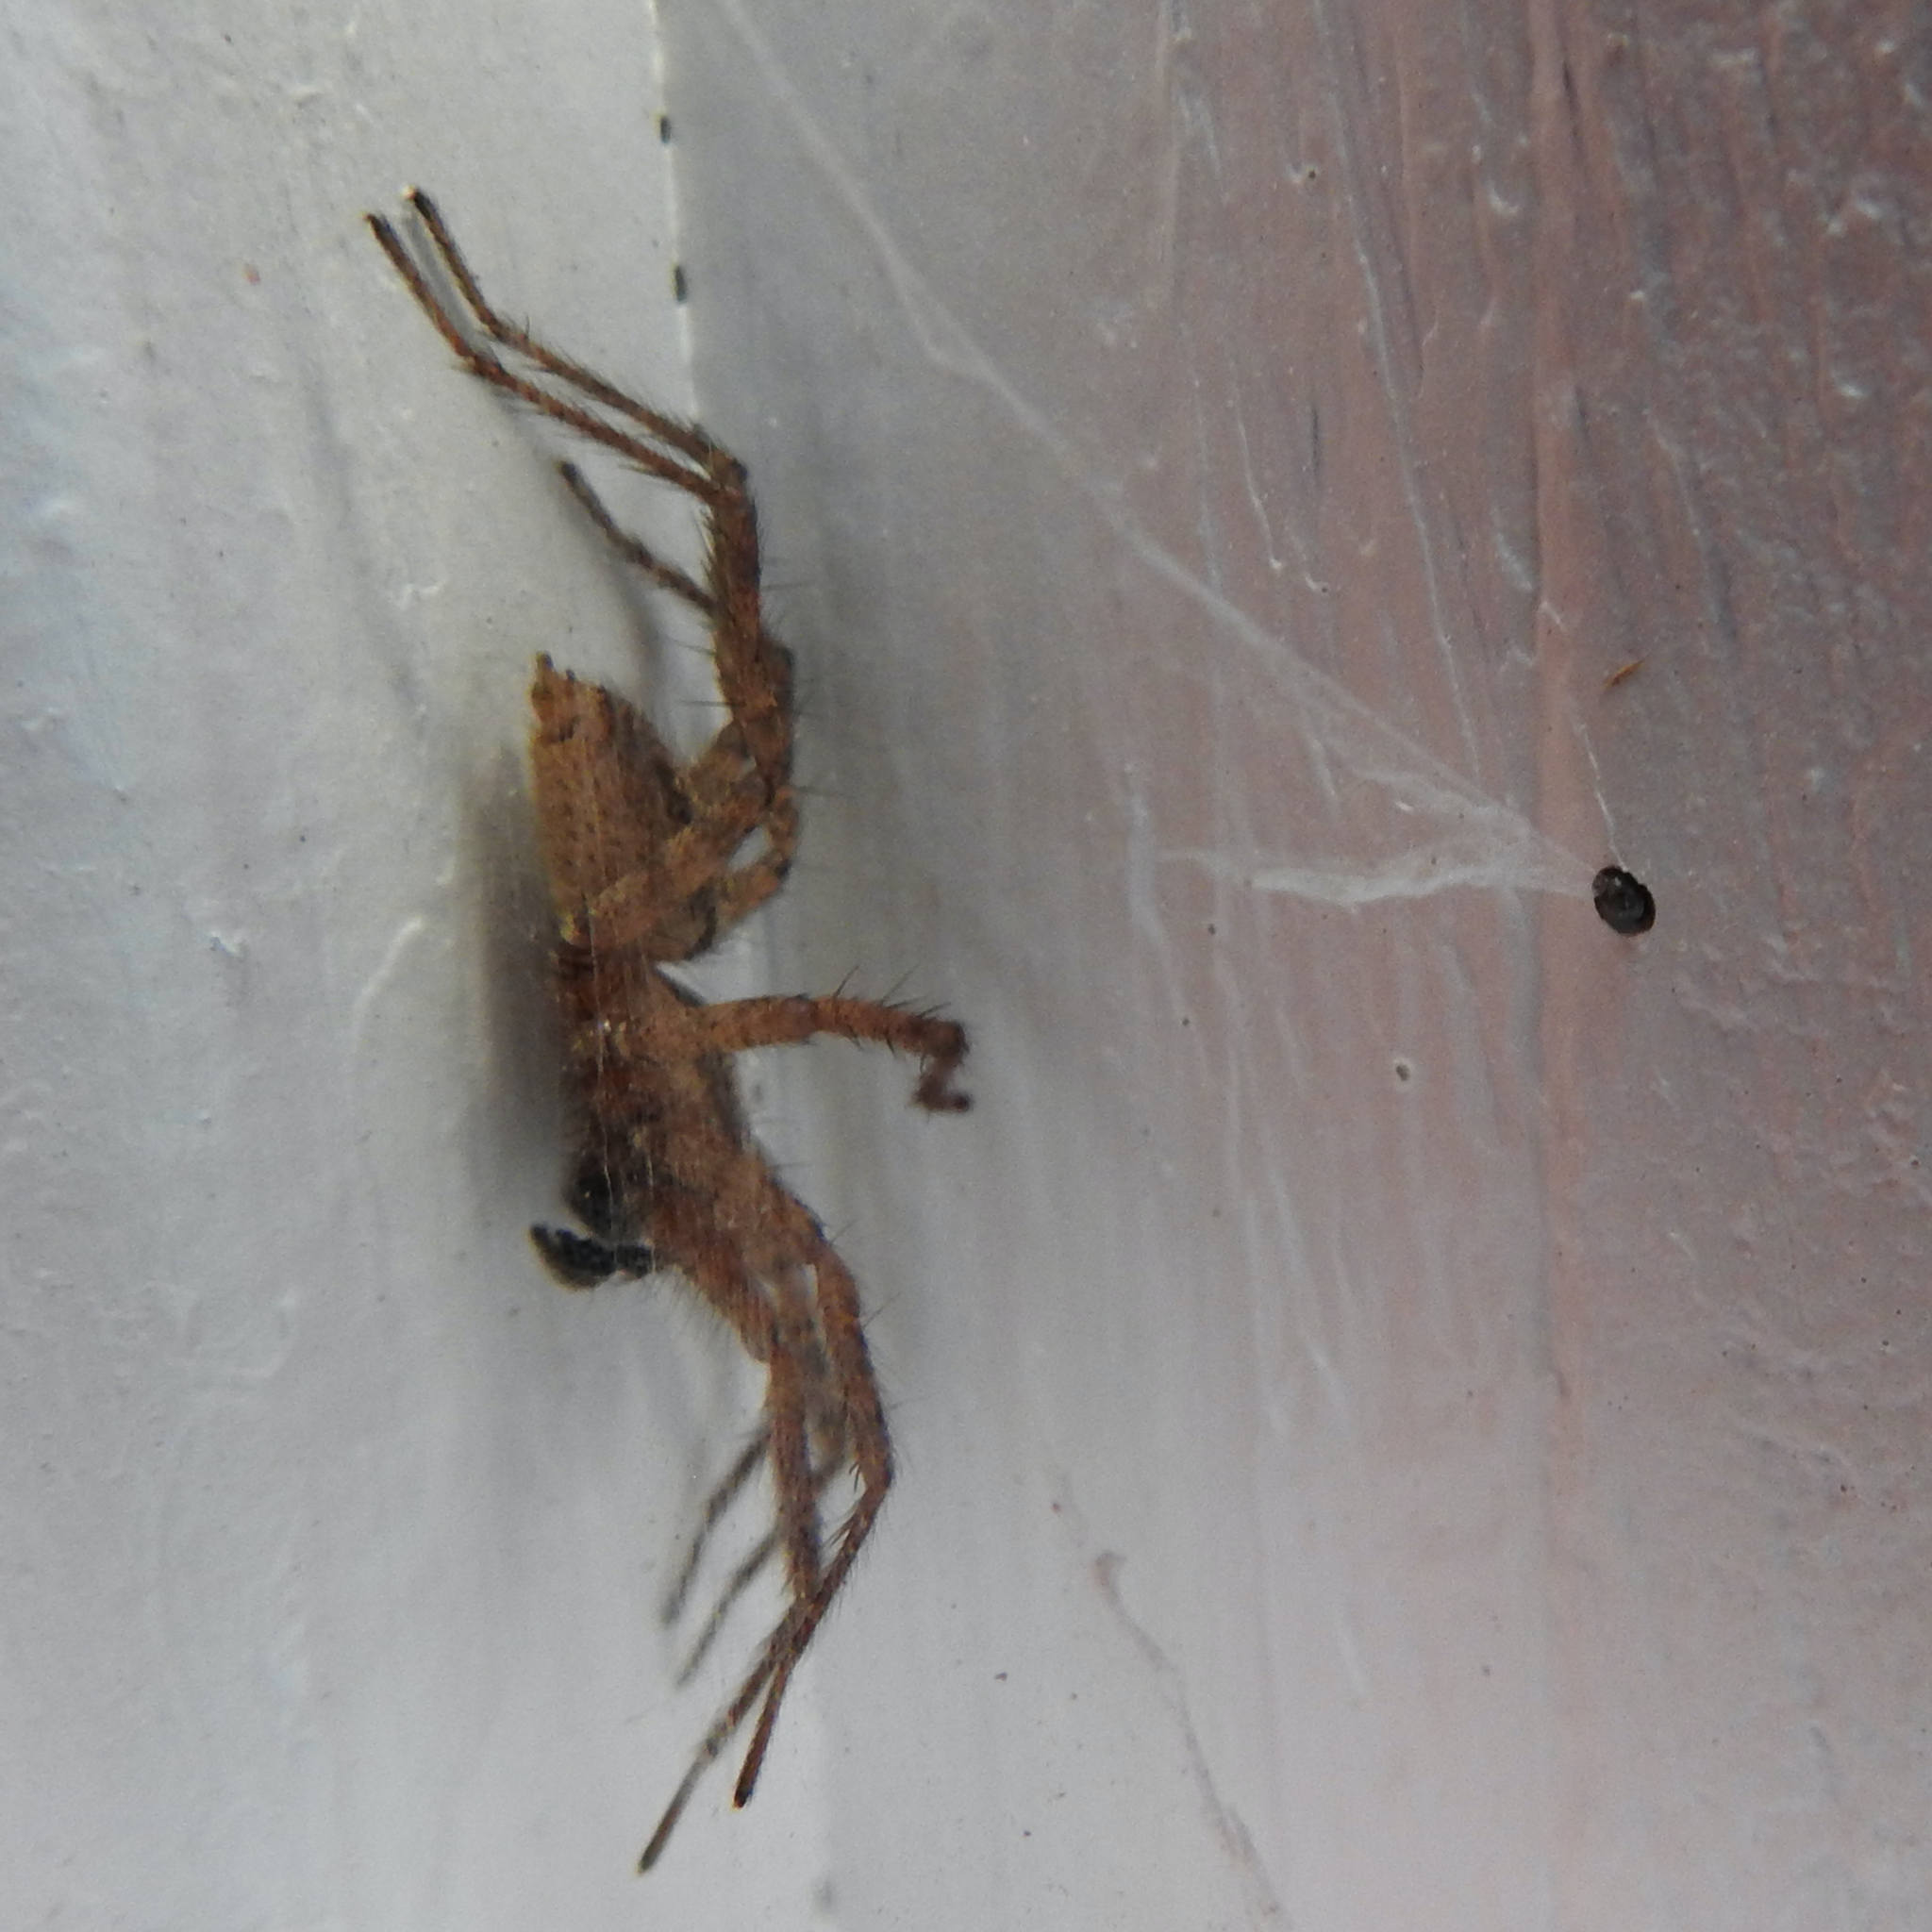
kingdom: Animalia
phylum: Arthropoda
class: Arachnida
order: Araneae
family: Agelenidae
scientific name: Agelenidae
